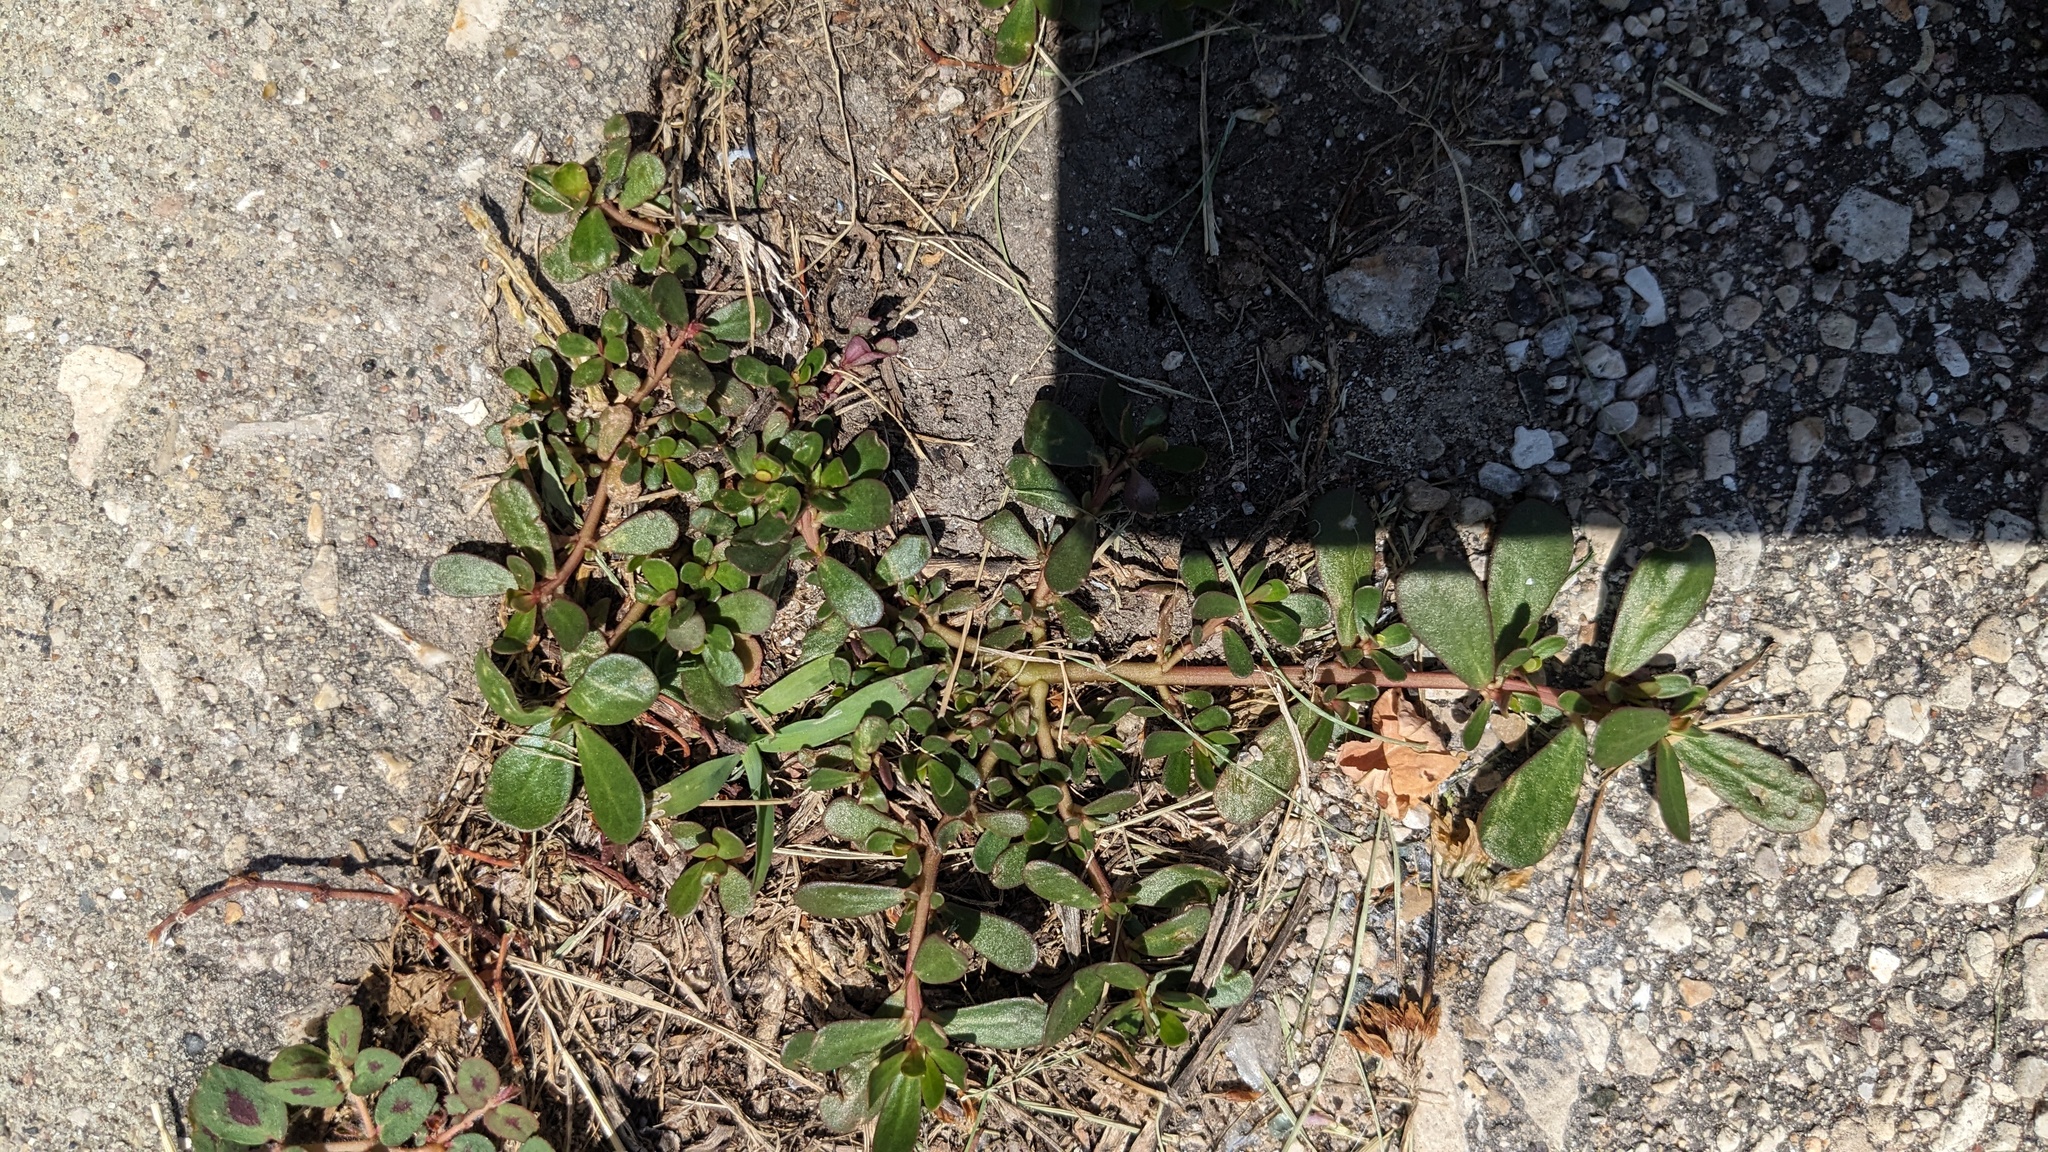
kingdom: Plantae
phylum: Tracheophyta
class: Magnoliopsida
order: Caryophyllales
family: Portulacaceae
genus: Portulaca
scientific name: Portulaca oleracea
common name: Common purslane
